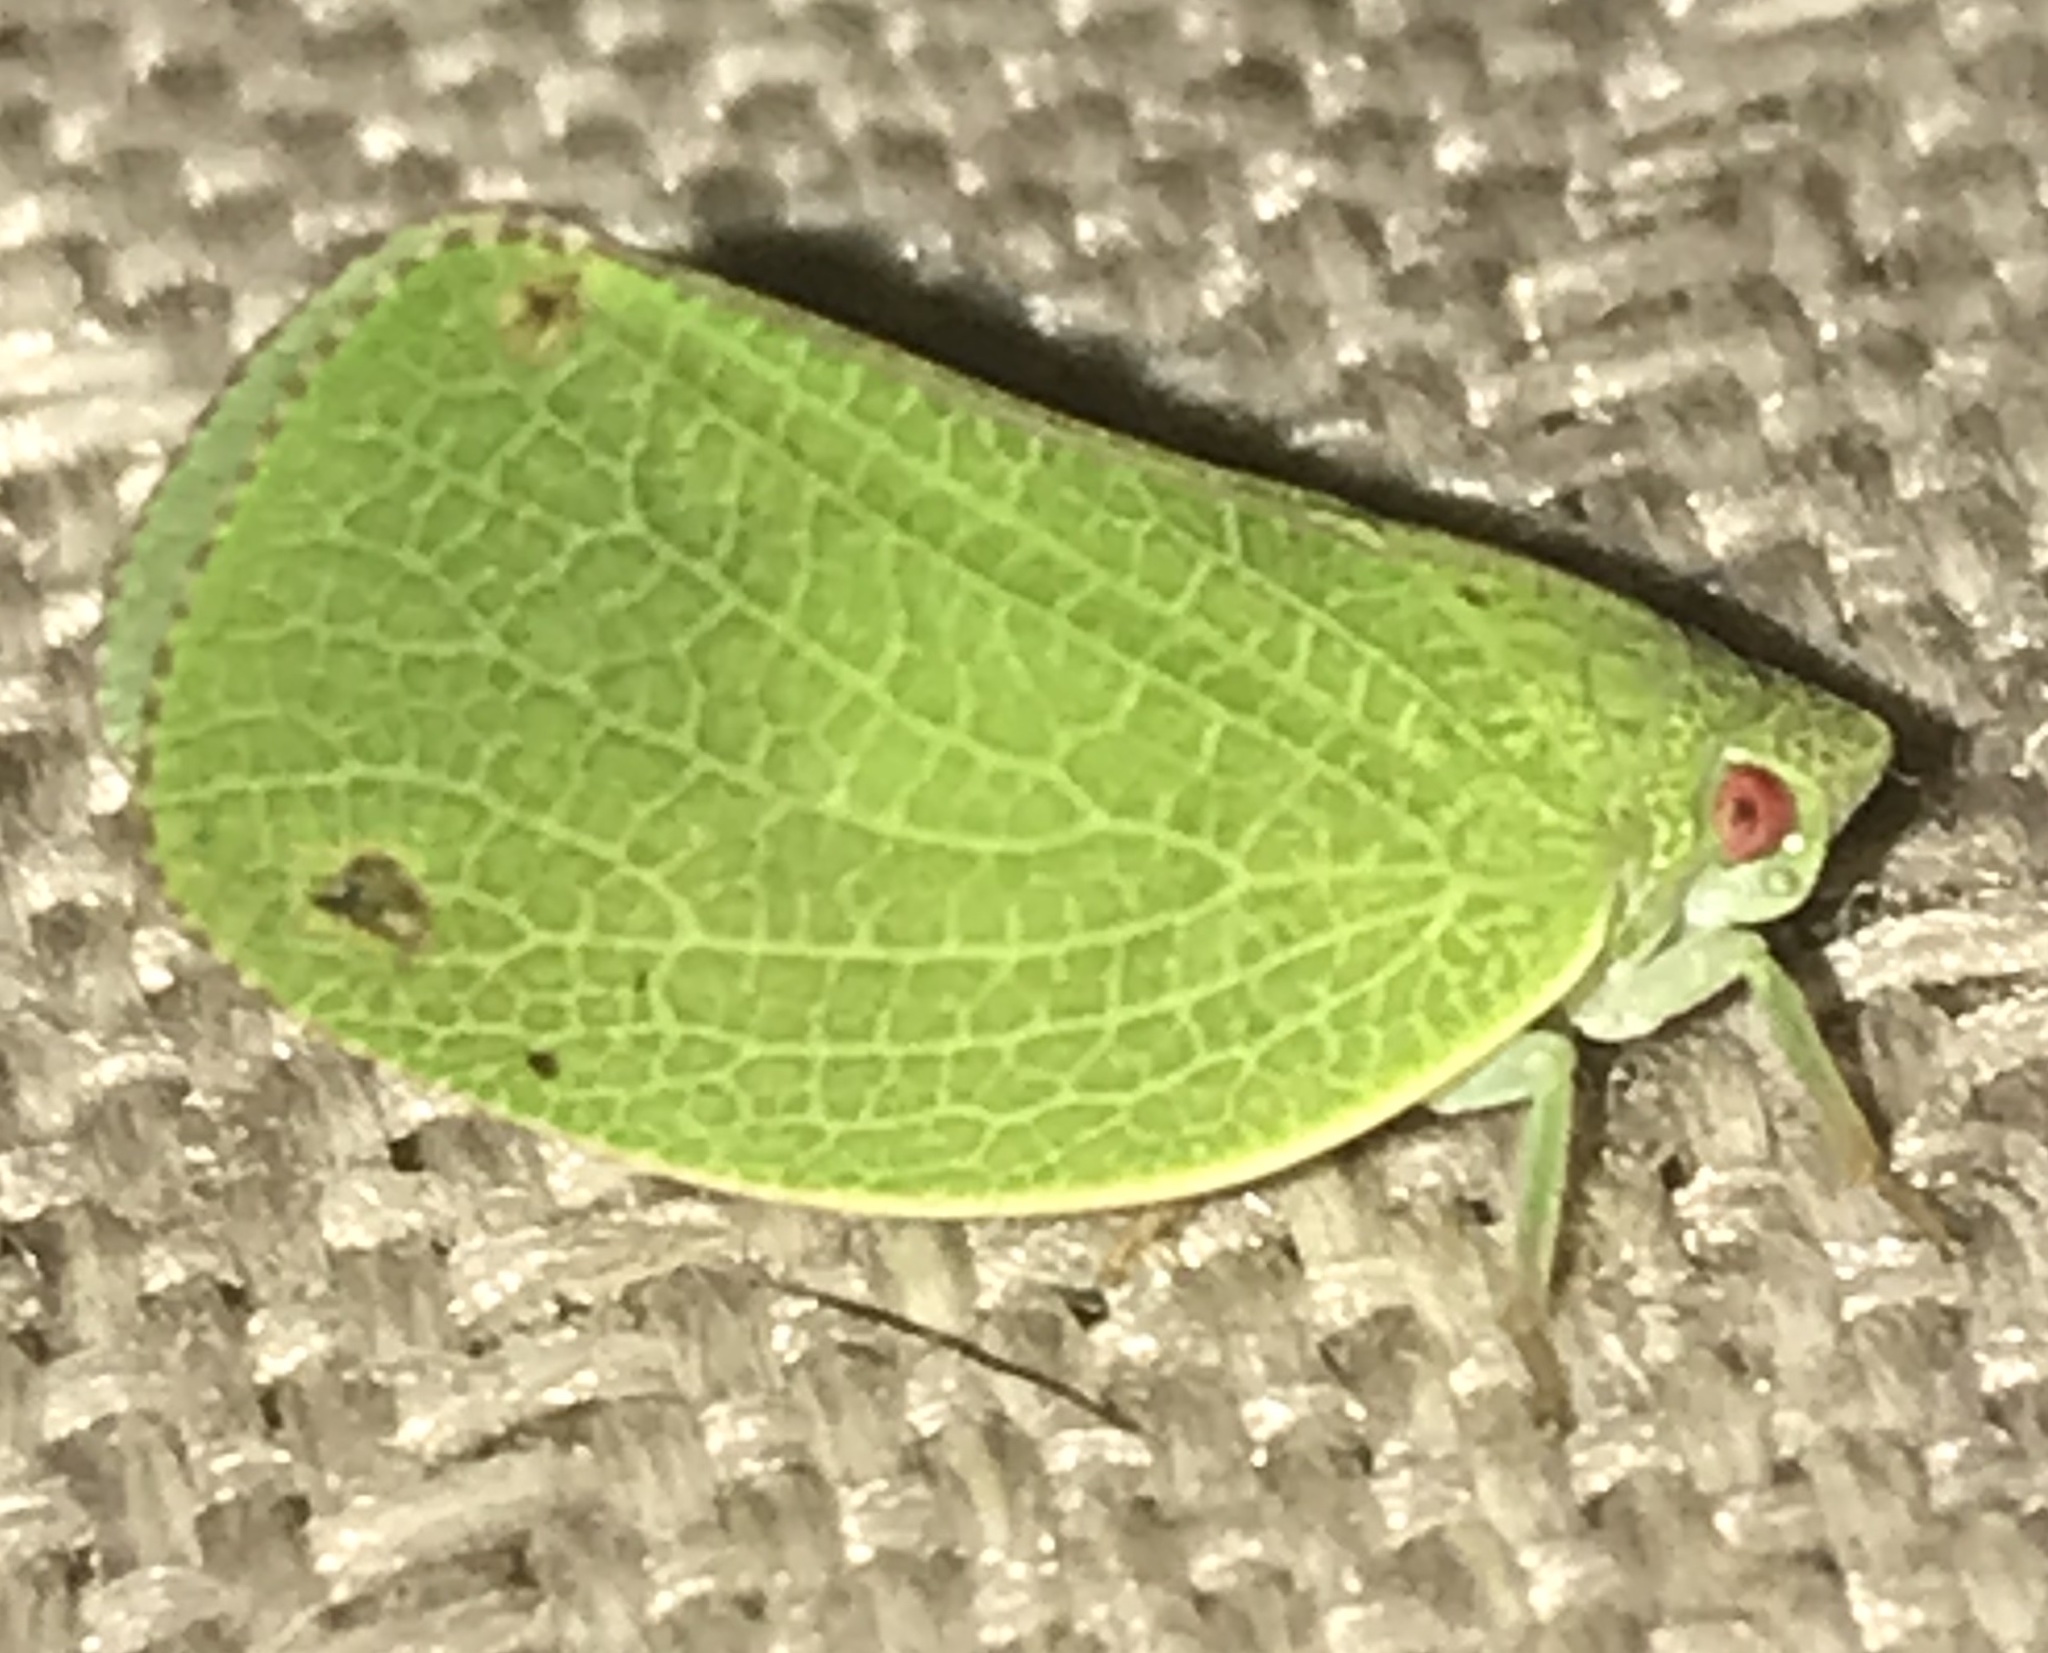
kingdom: Animalia
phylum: Arthropoda
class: Insecta
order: Hemiptera
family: Acanaloniidae
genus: Acanalonia
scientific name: Acanalonia conica
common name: Green cone-headed planthopper
